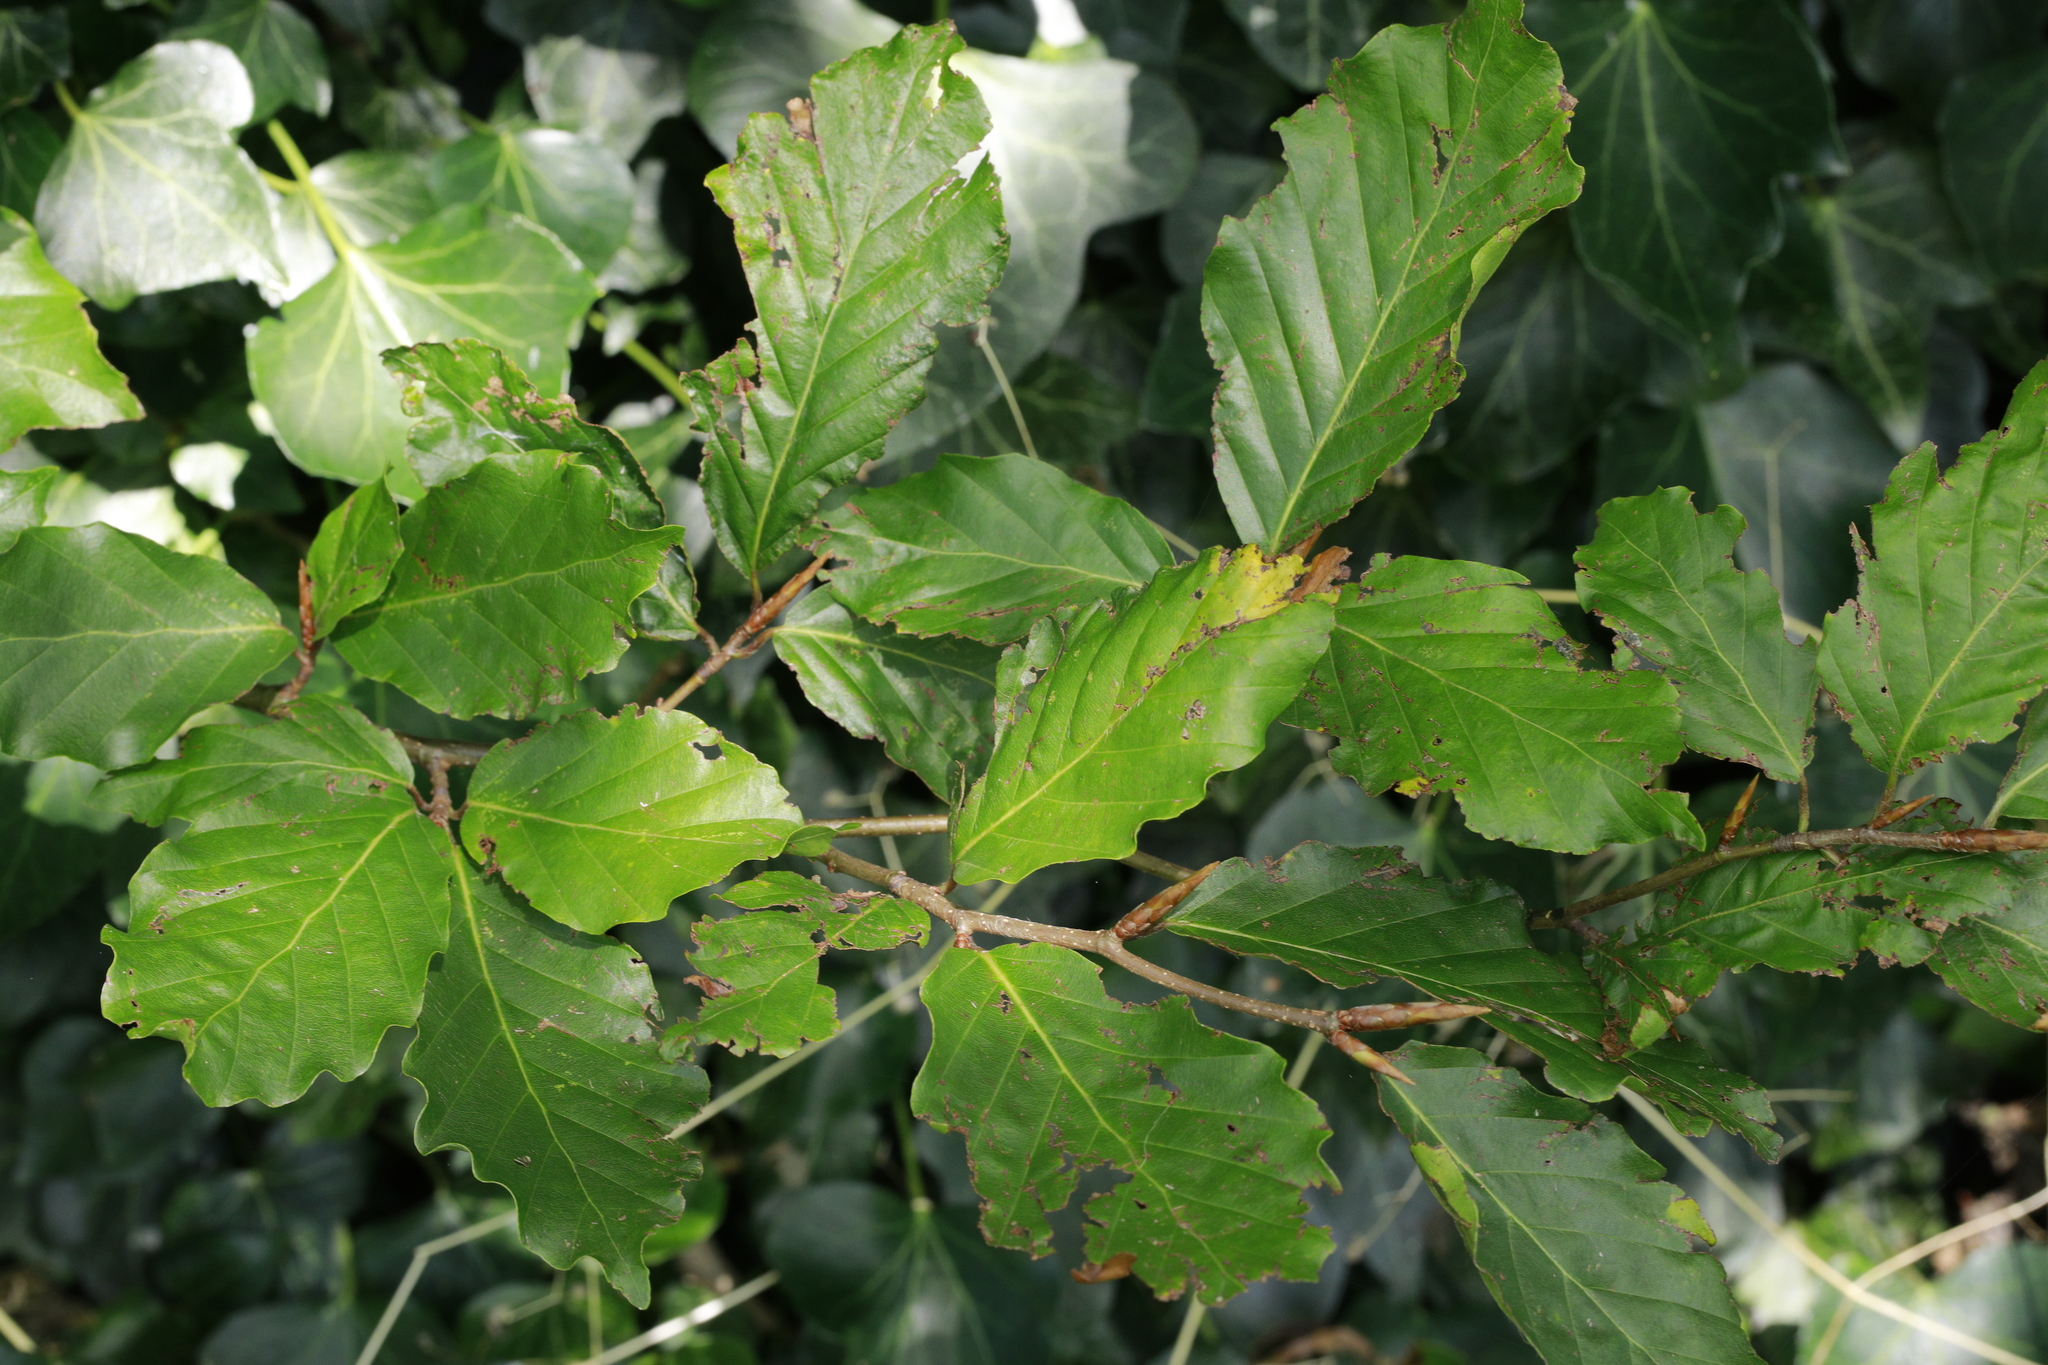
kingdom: Plantae
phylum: Tracheophyta
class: Magnoliopsida
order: Fagales
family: Fagaceae
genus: Fagus
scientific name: Fagus sylvatica
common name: Beech
